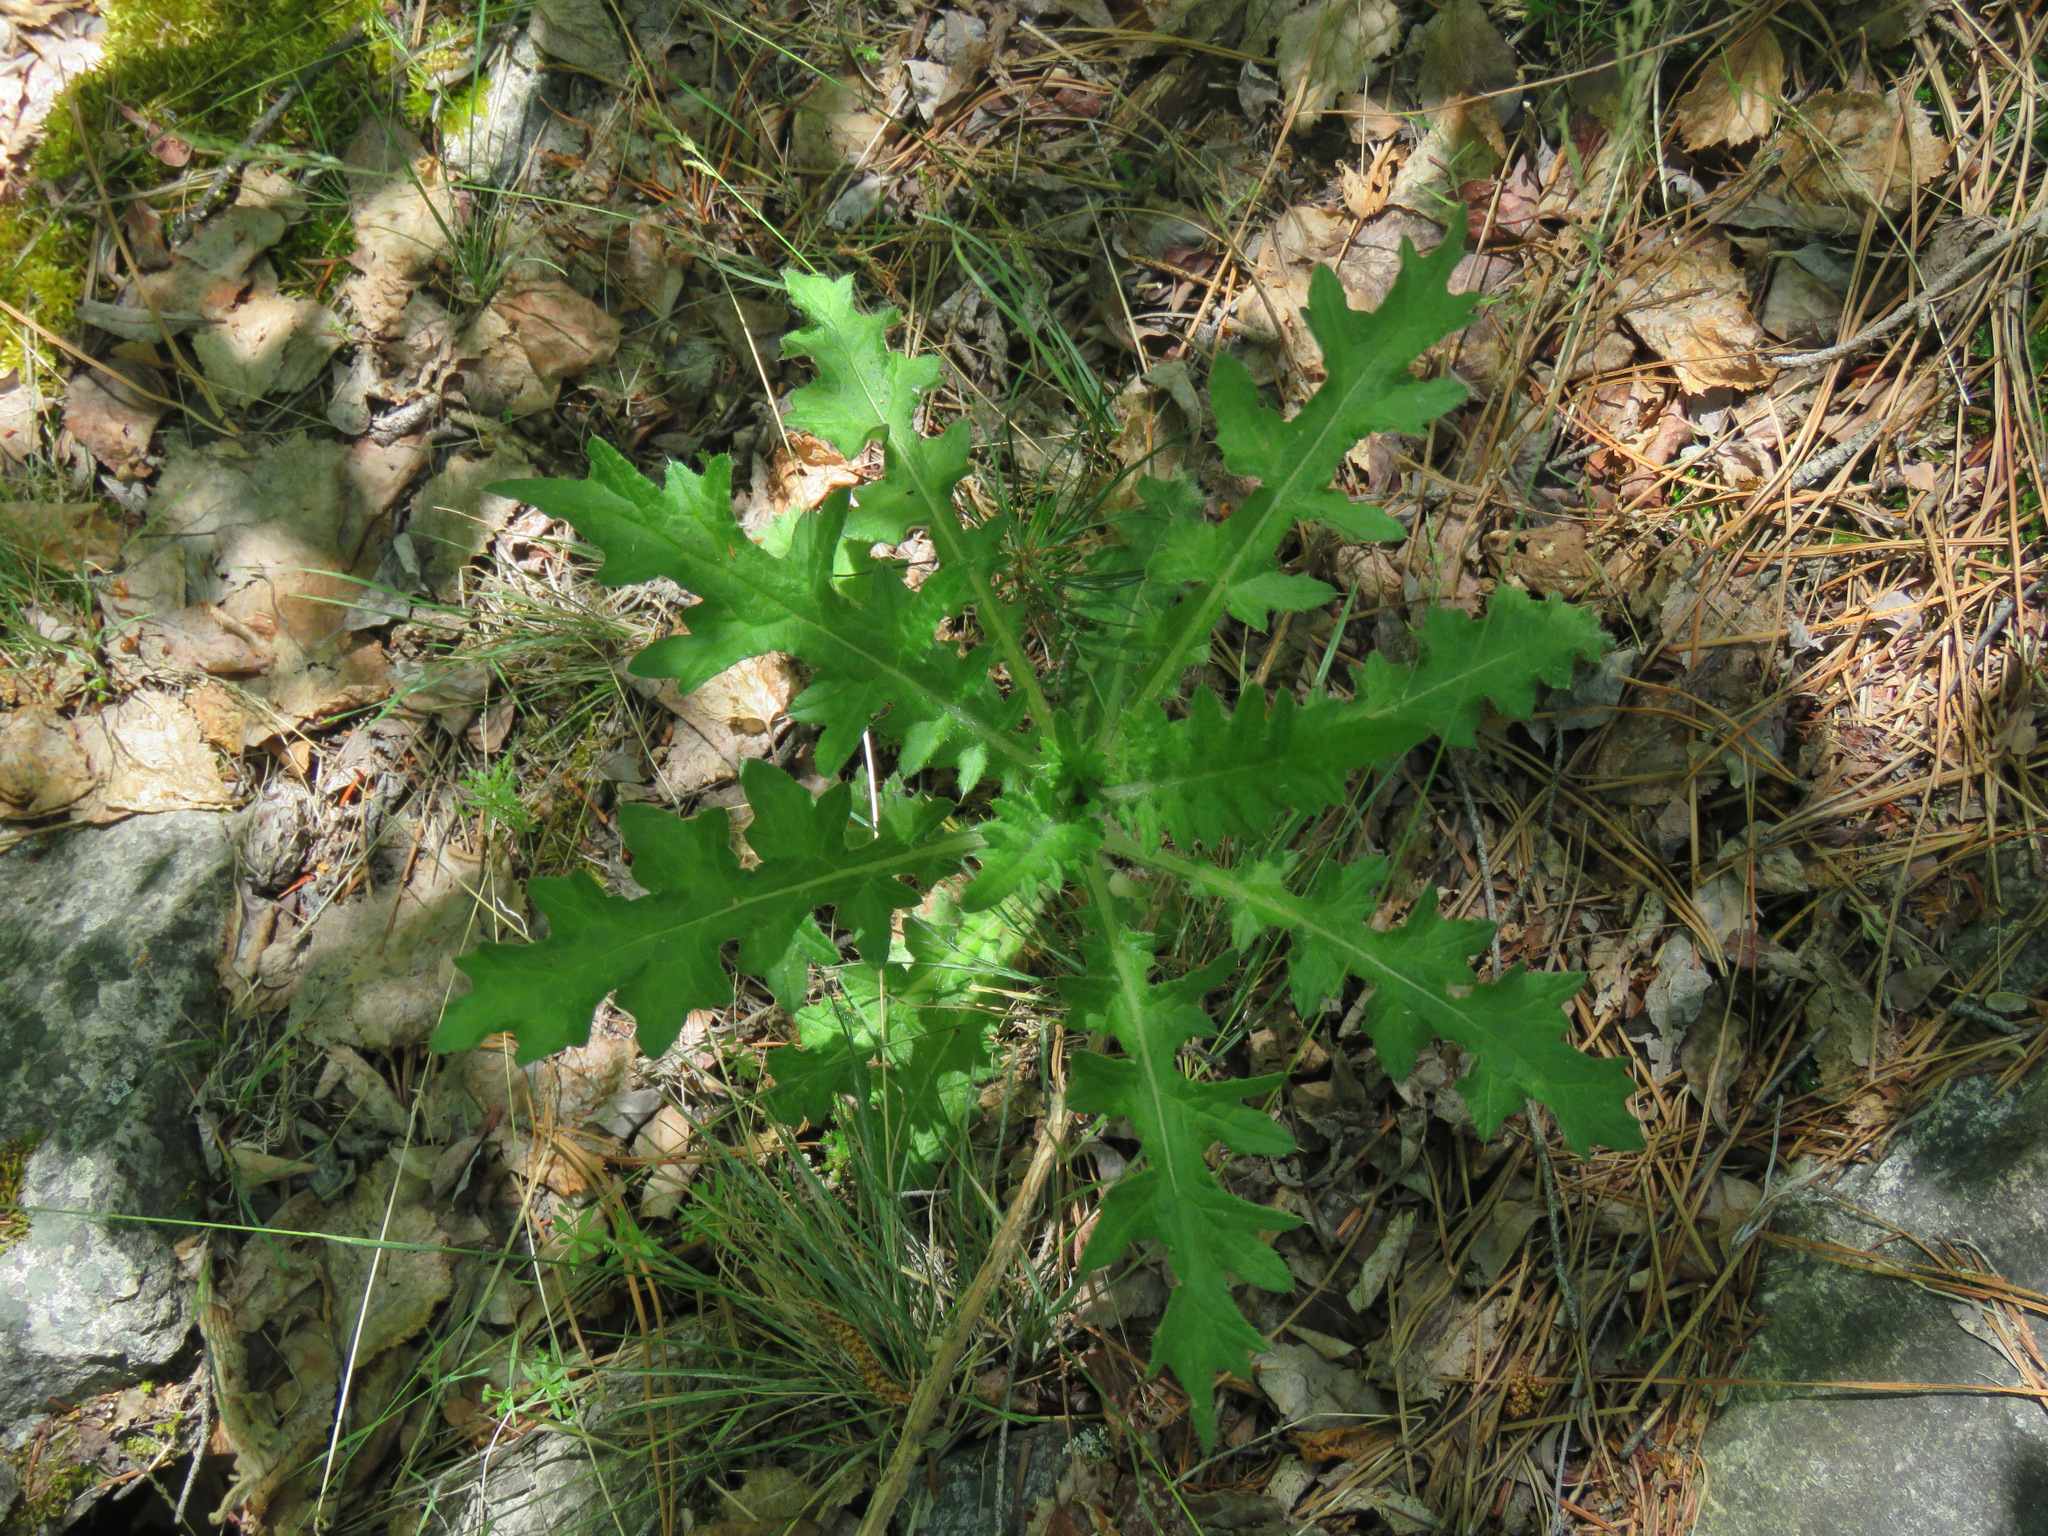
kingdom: Plantae
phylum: Tracheophyta
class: Magnoliopsida
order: Asterales
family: Asteraceae
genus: Cirsium
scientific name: Cirsium vulgare
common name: Bull thistle
